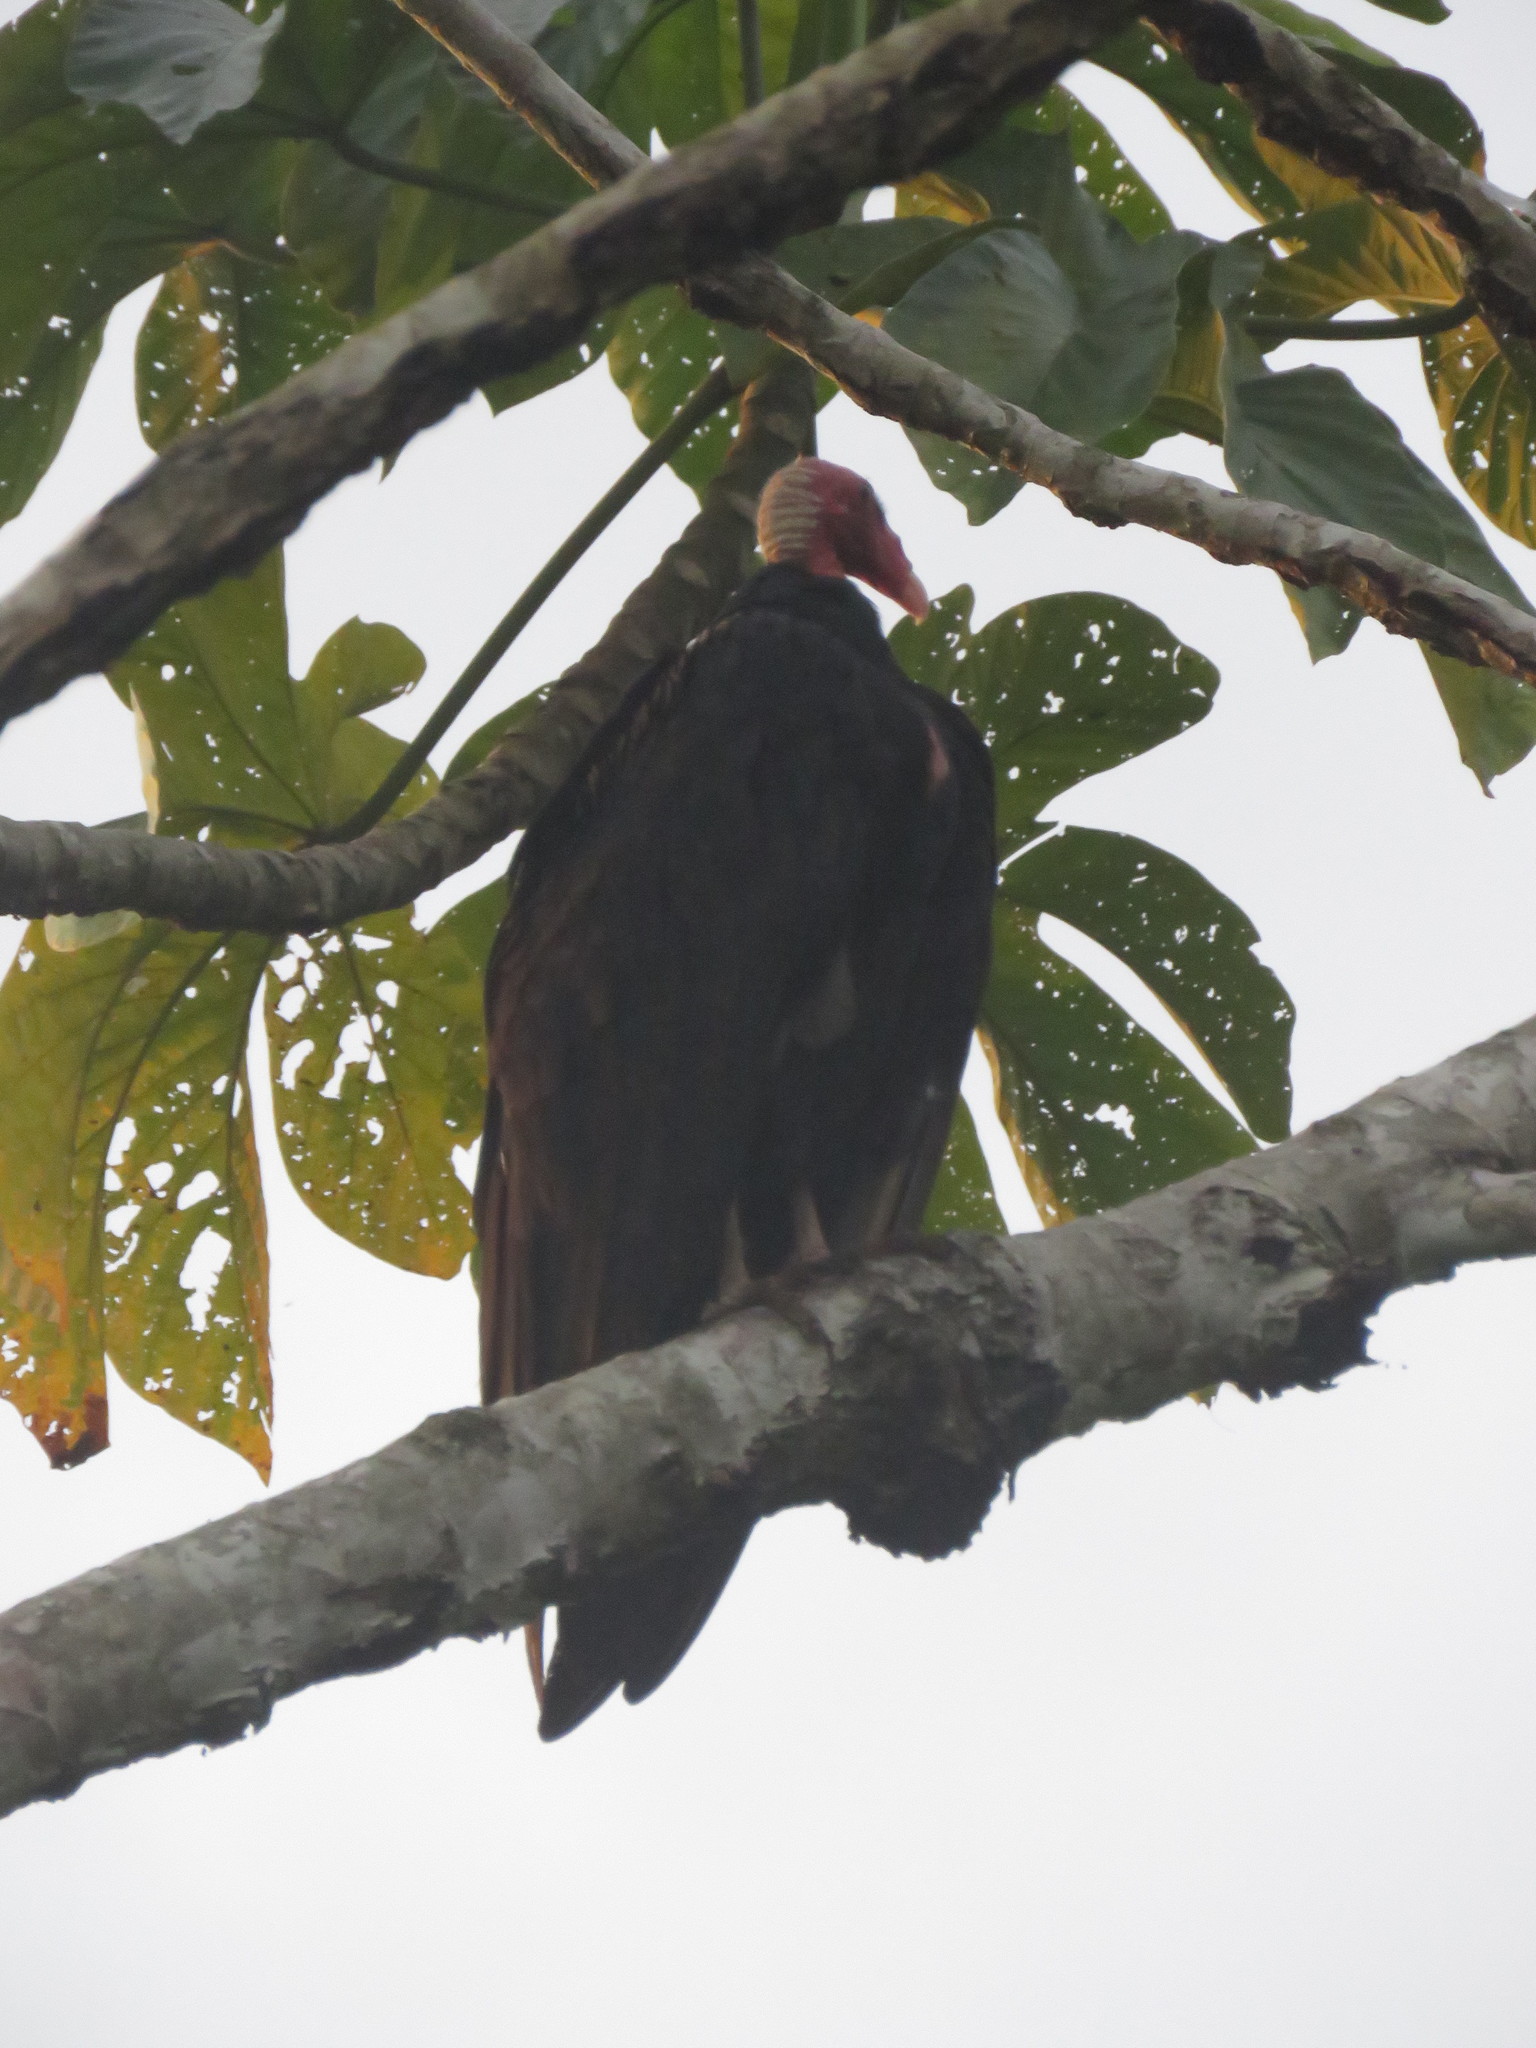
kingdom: Animalia
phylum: Chordata
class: Aves
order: Accipitriformes
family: Cathartidae
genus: Cathartes
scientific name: Cathartes aura
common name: Turkey vulture
